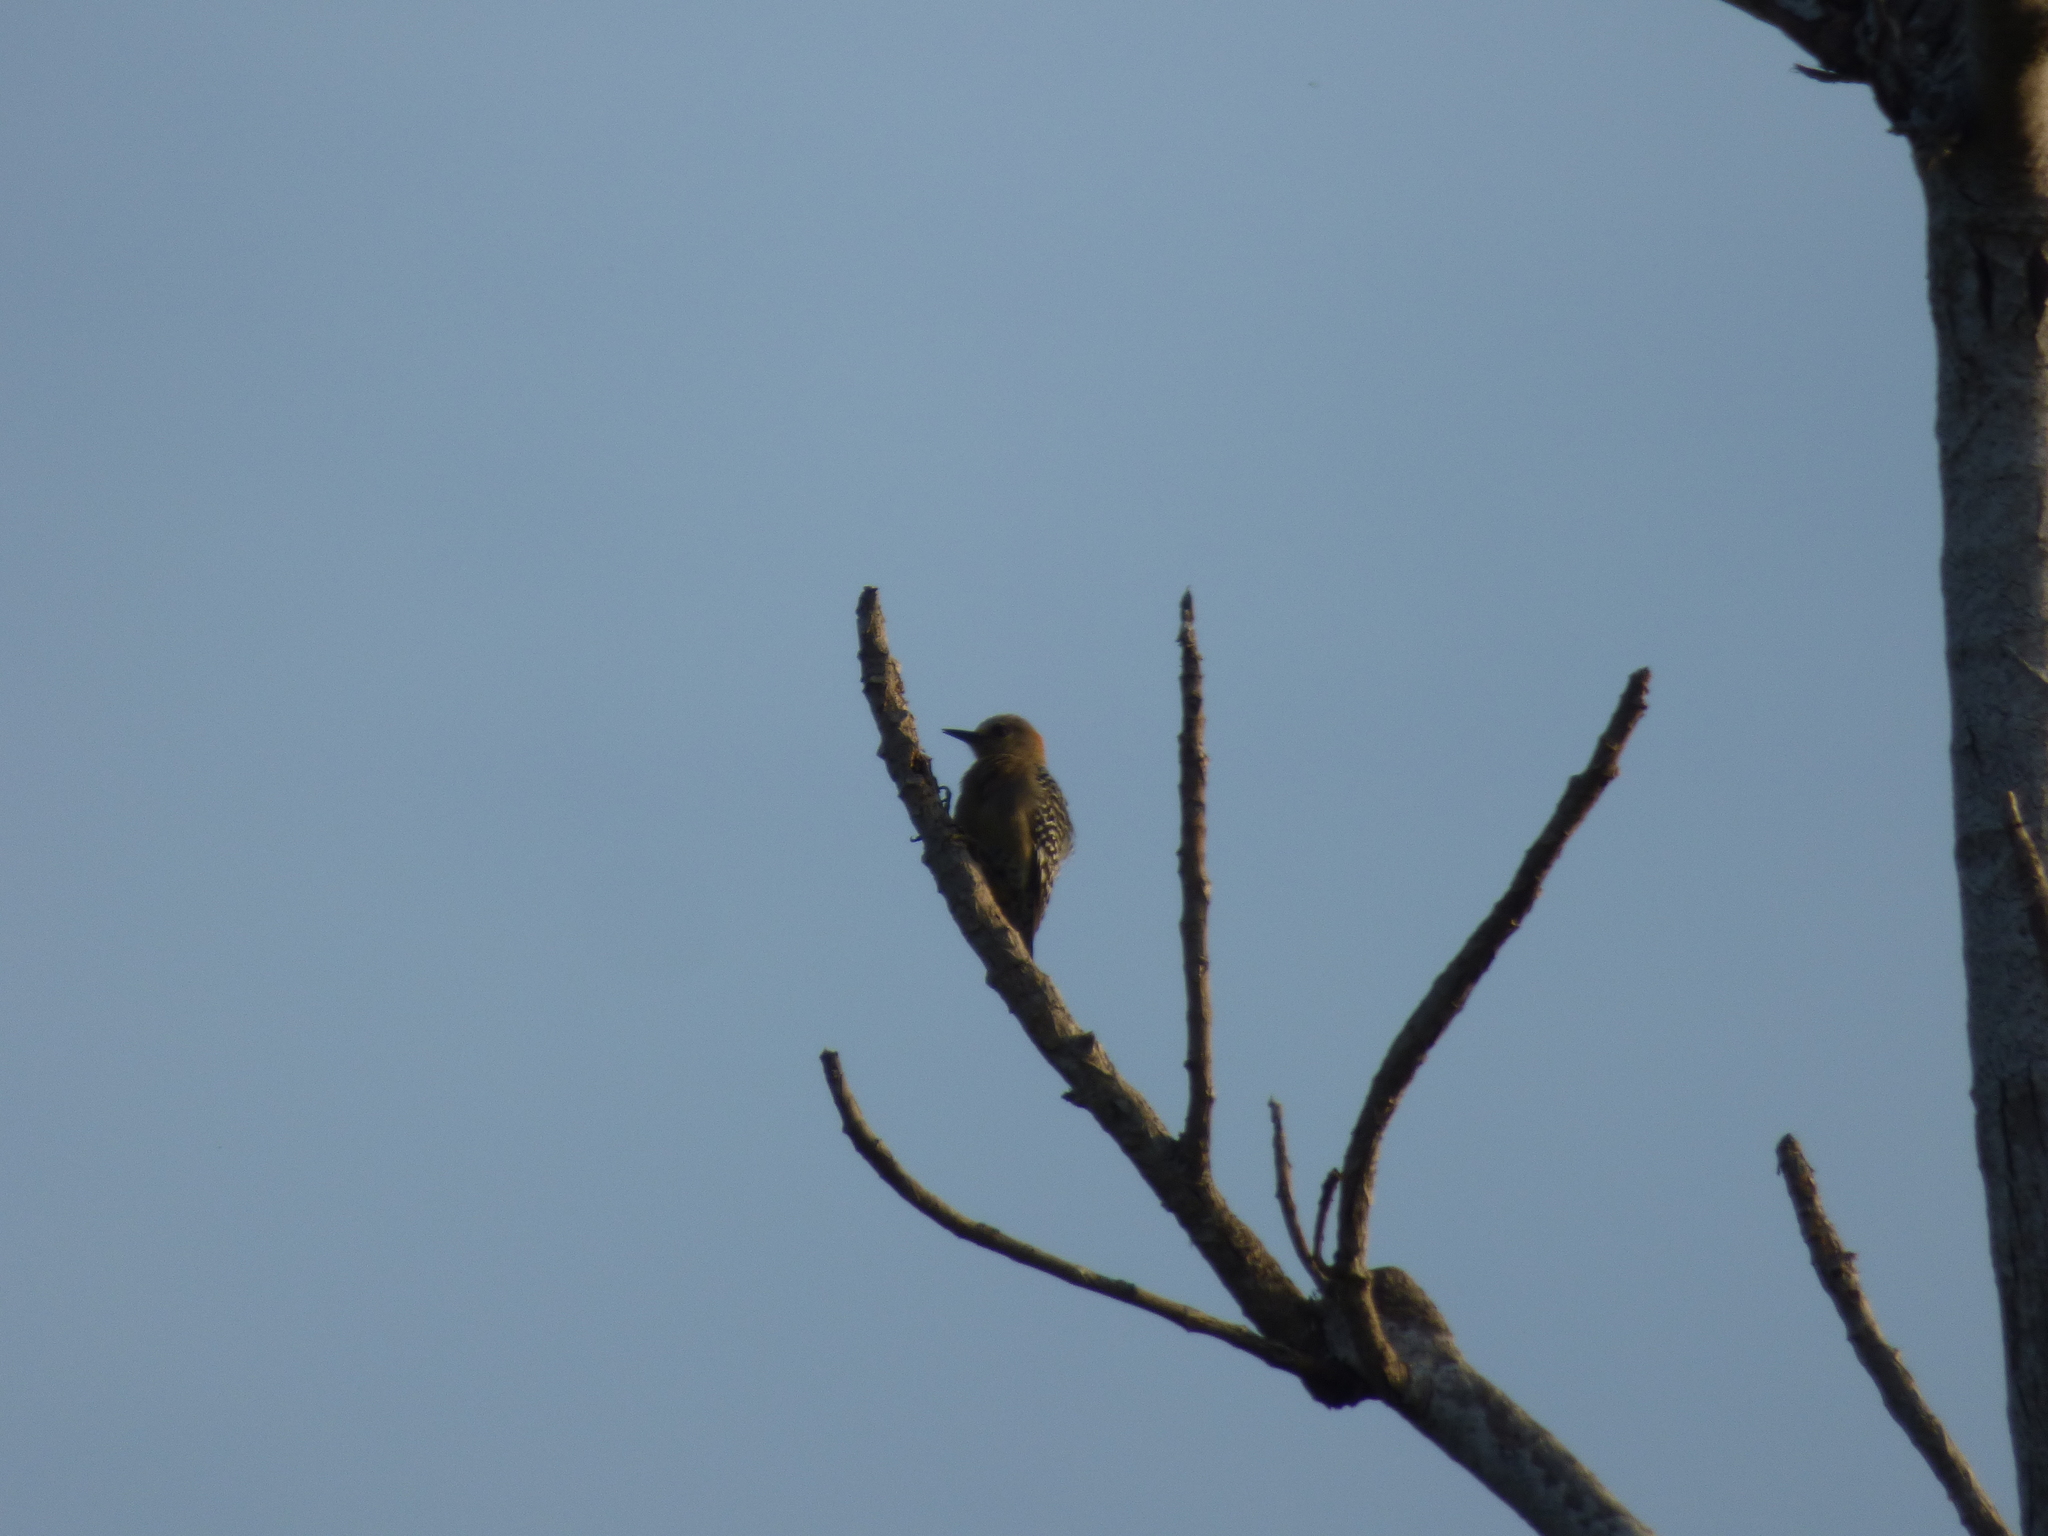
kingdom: Animalia
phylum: Chordata
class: Aves
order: Piciformes
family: Picidae
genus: Melanerpes
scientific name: Melanerpes rubricapillus
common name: Red-crowned woodpecker
